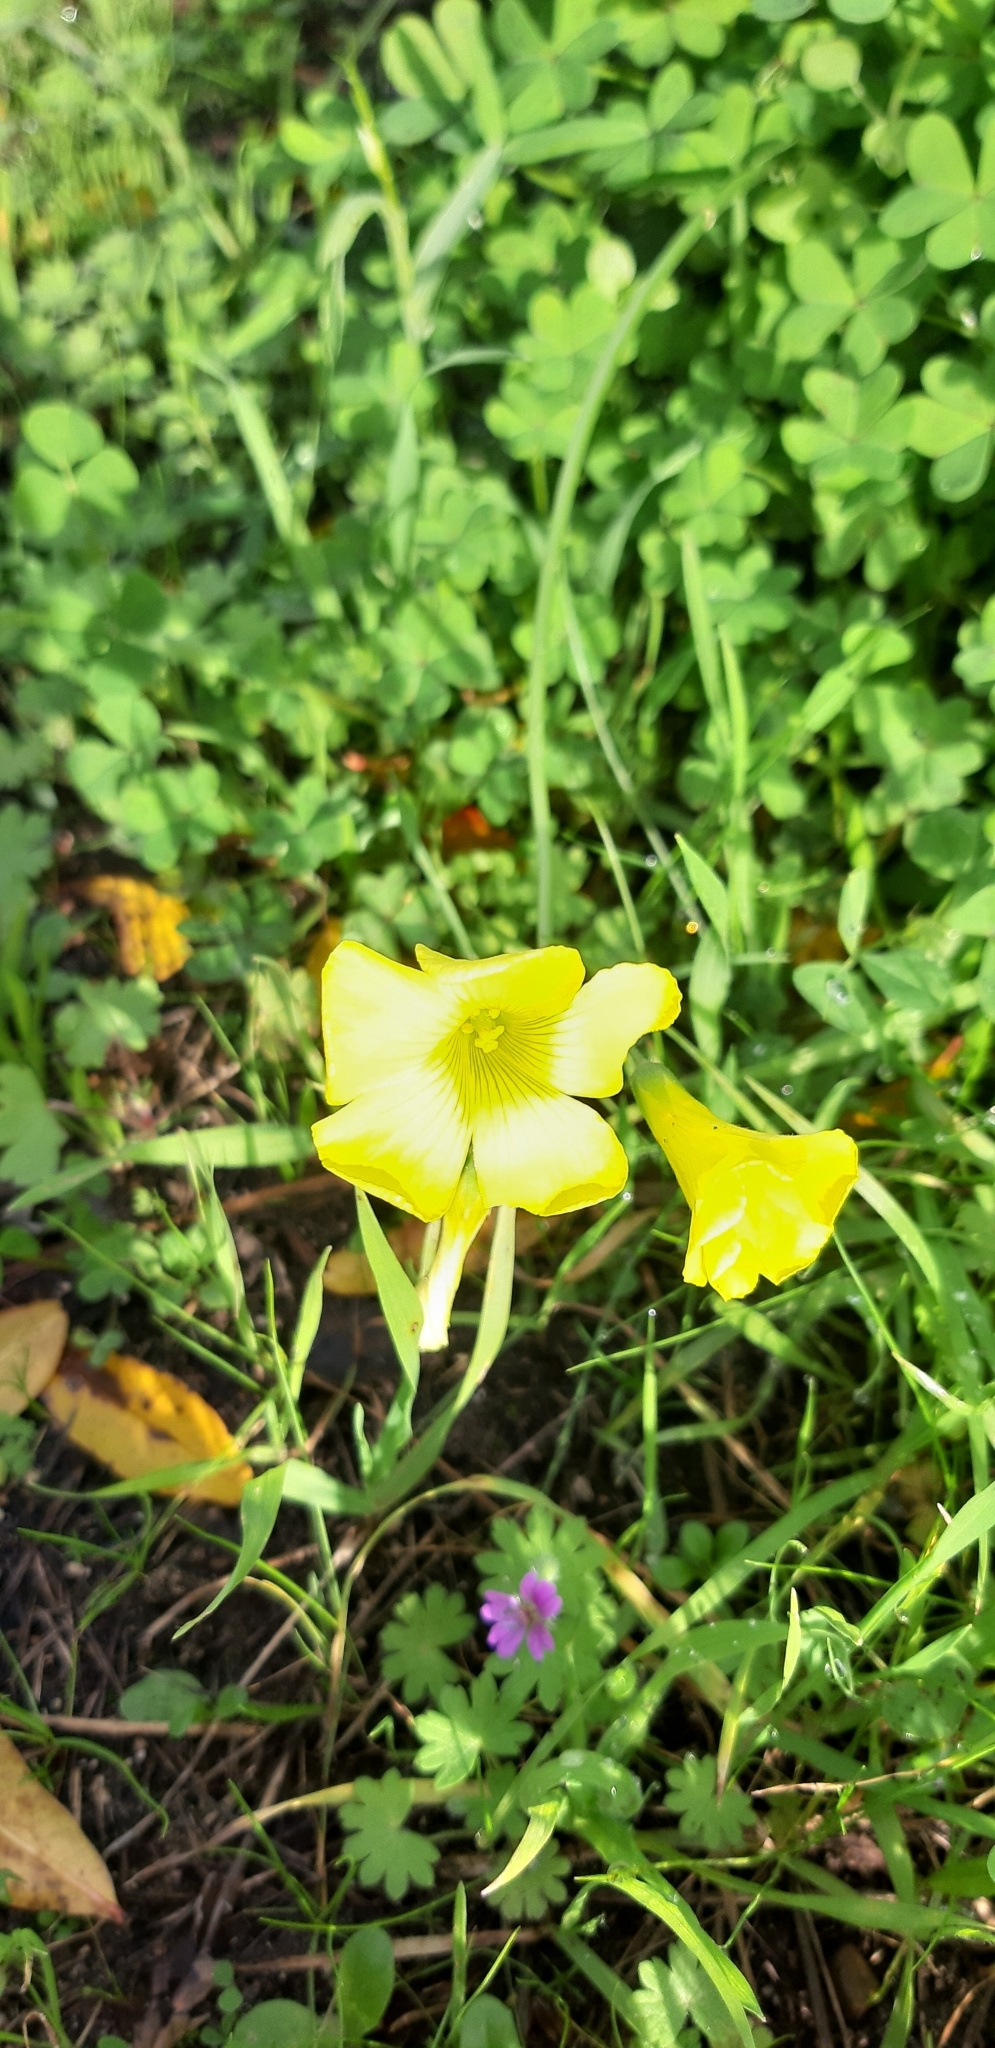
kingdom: Plantae
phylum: Tracheophyta
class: Magnoliopsida
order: Oxalidales
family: Oxalidaceae
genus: Oxalis
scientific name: Oxalis pes-caprae
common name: Bermuda-buttercup
